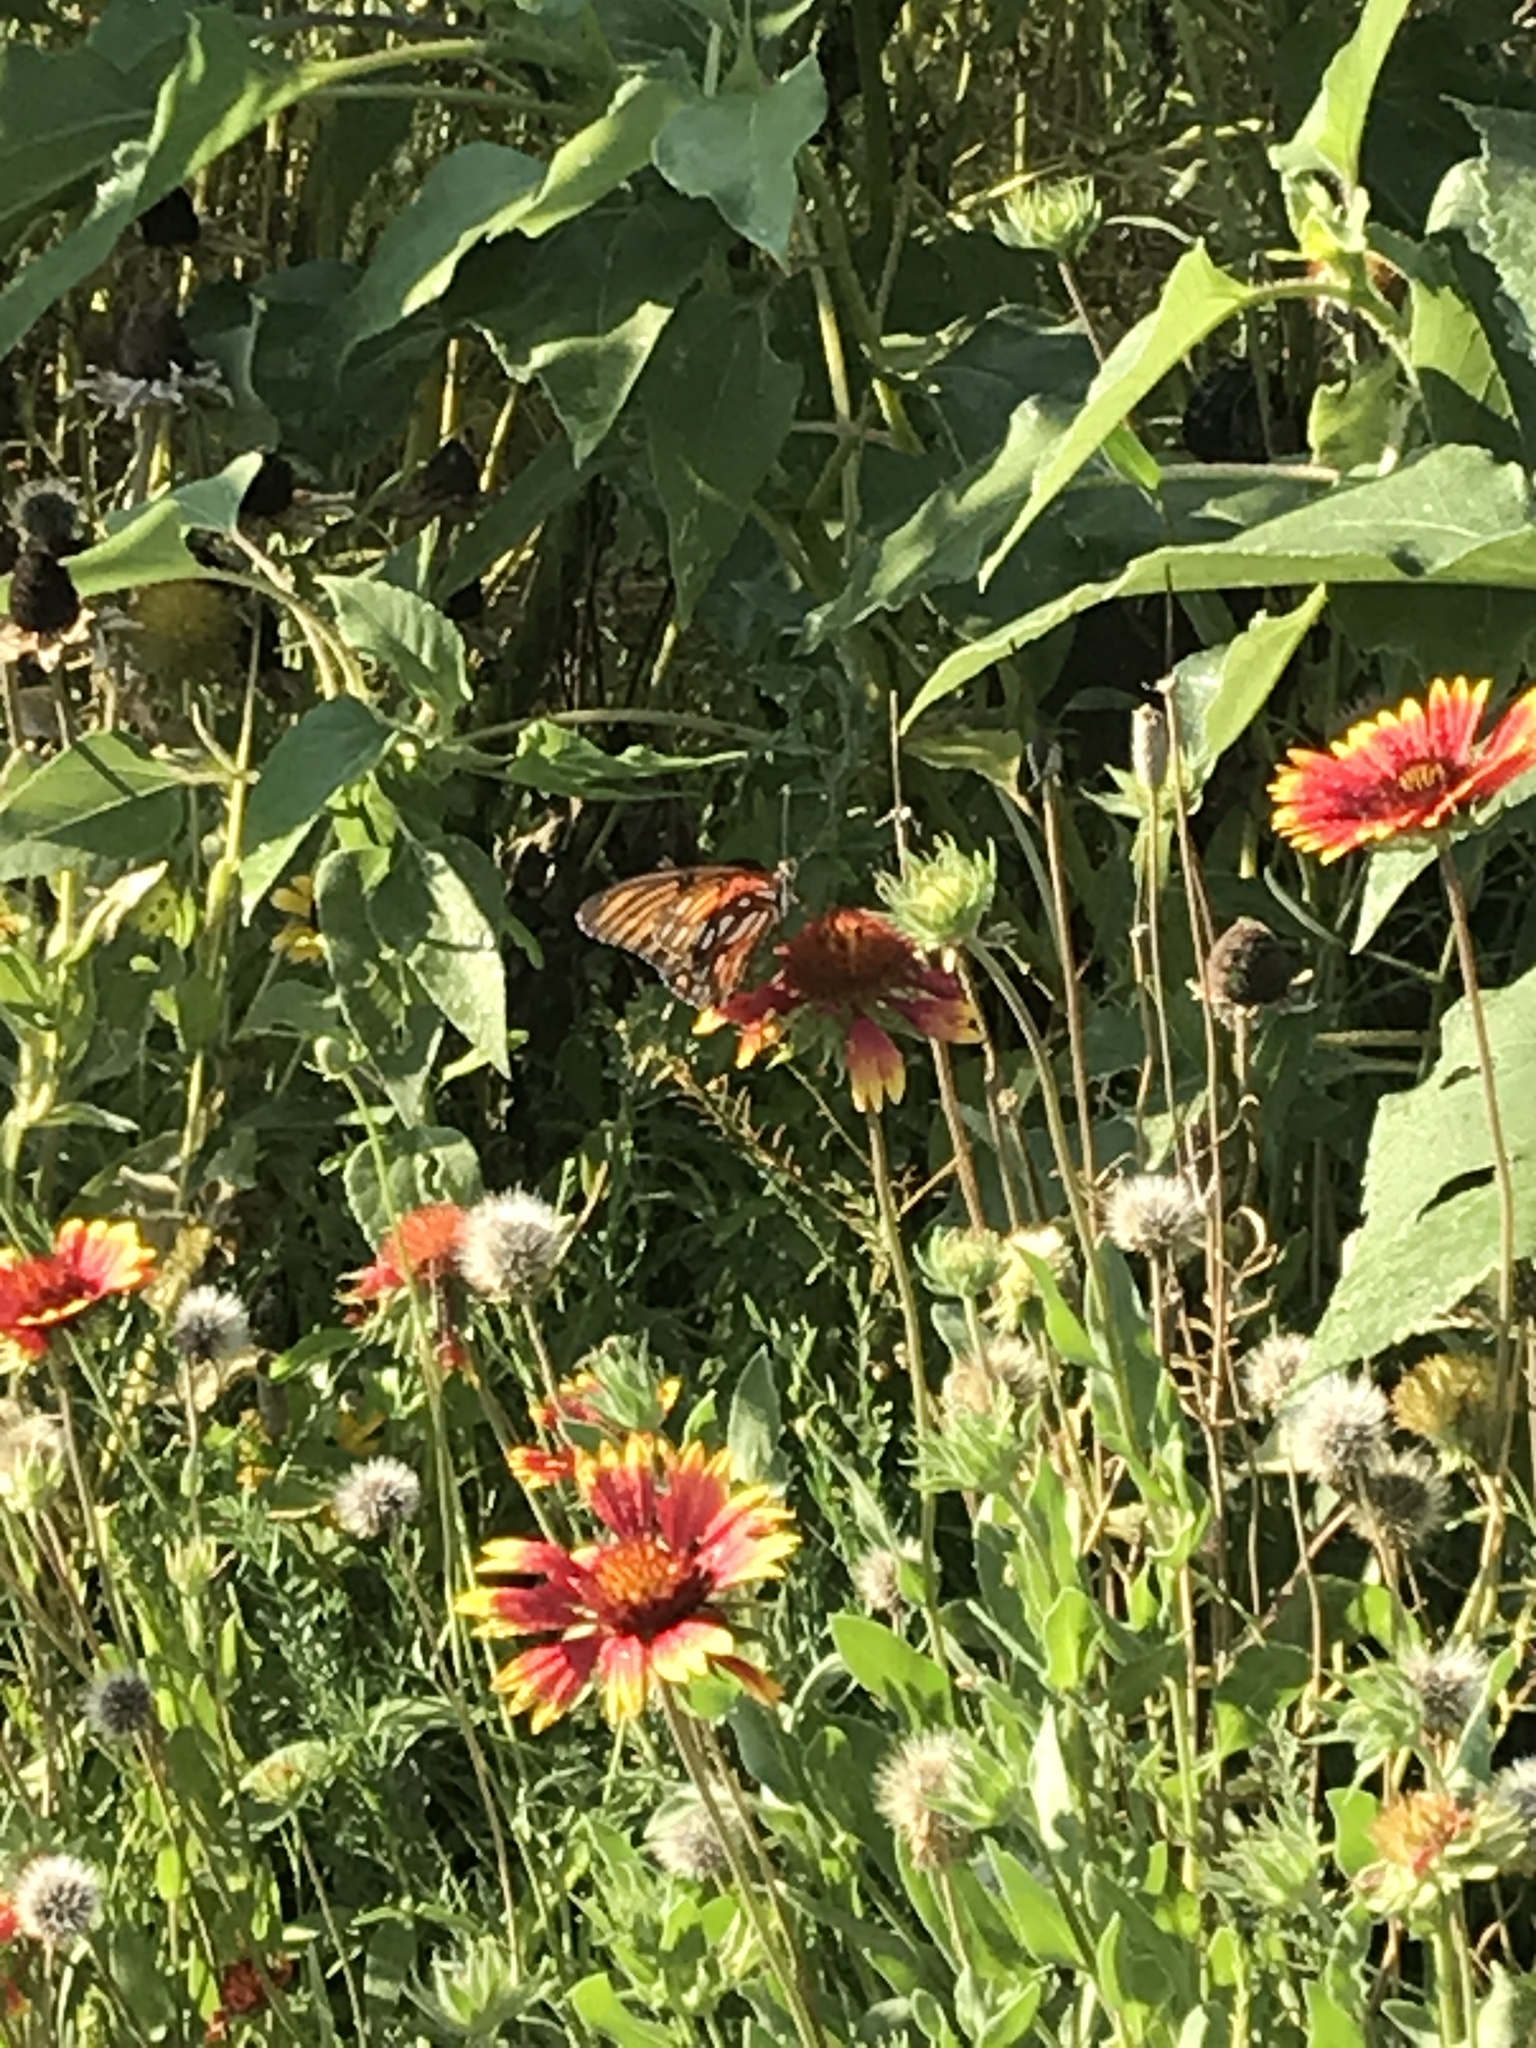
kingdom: Animalia
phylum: Arthropoda
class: Insecta
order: Lepidoptera
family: Nymphalidae
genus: Dione
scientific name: Dione vanillae
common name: Gulf fritillary
